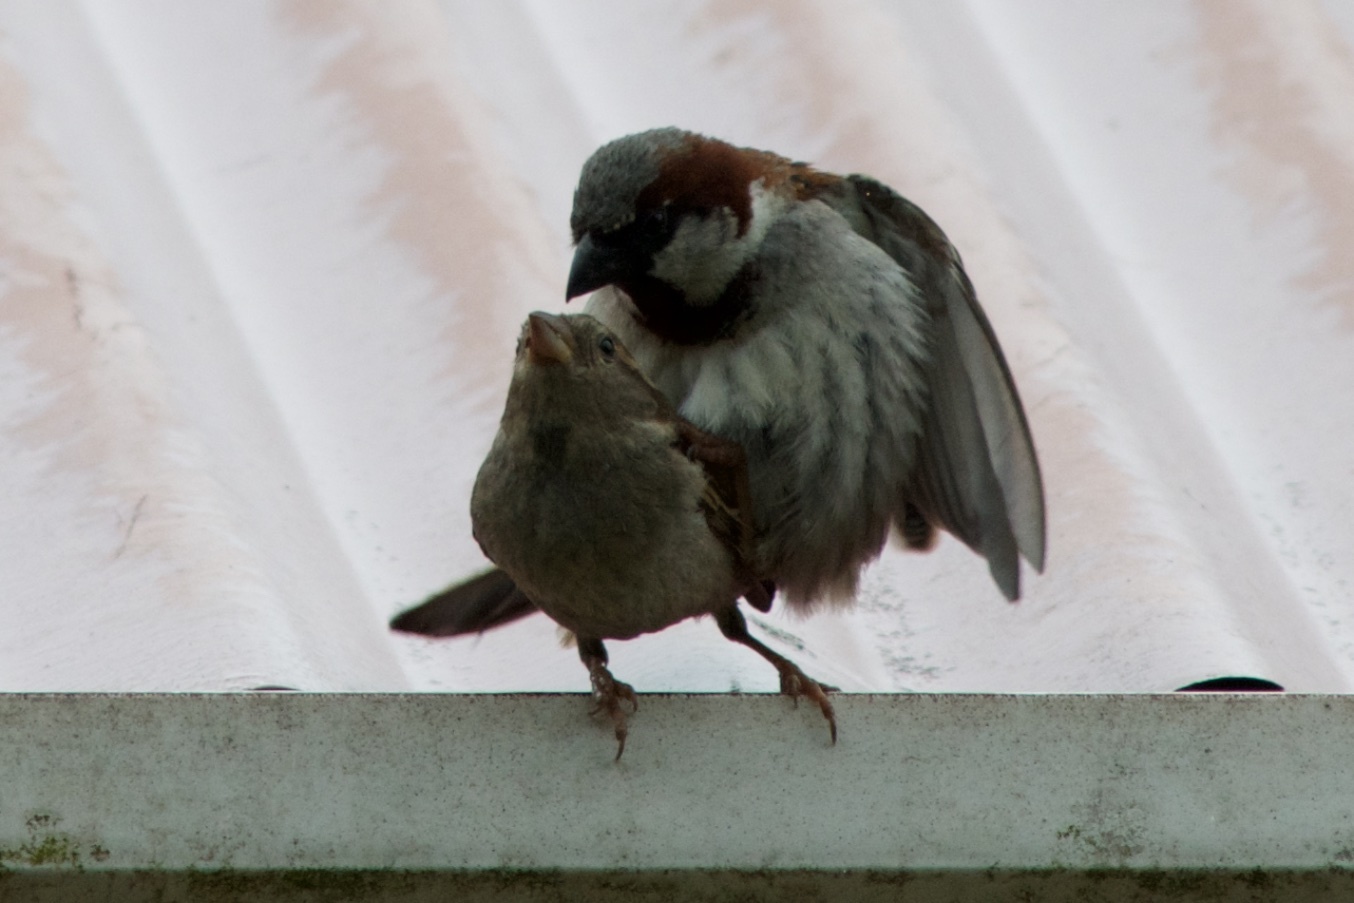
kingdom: Animalia
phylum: Chordata
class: Aves
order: Passeriformes
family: Passeridae
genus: Passer
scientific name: Passer domesticus
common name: House sparrow
